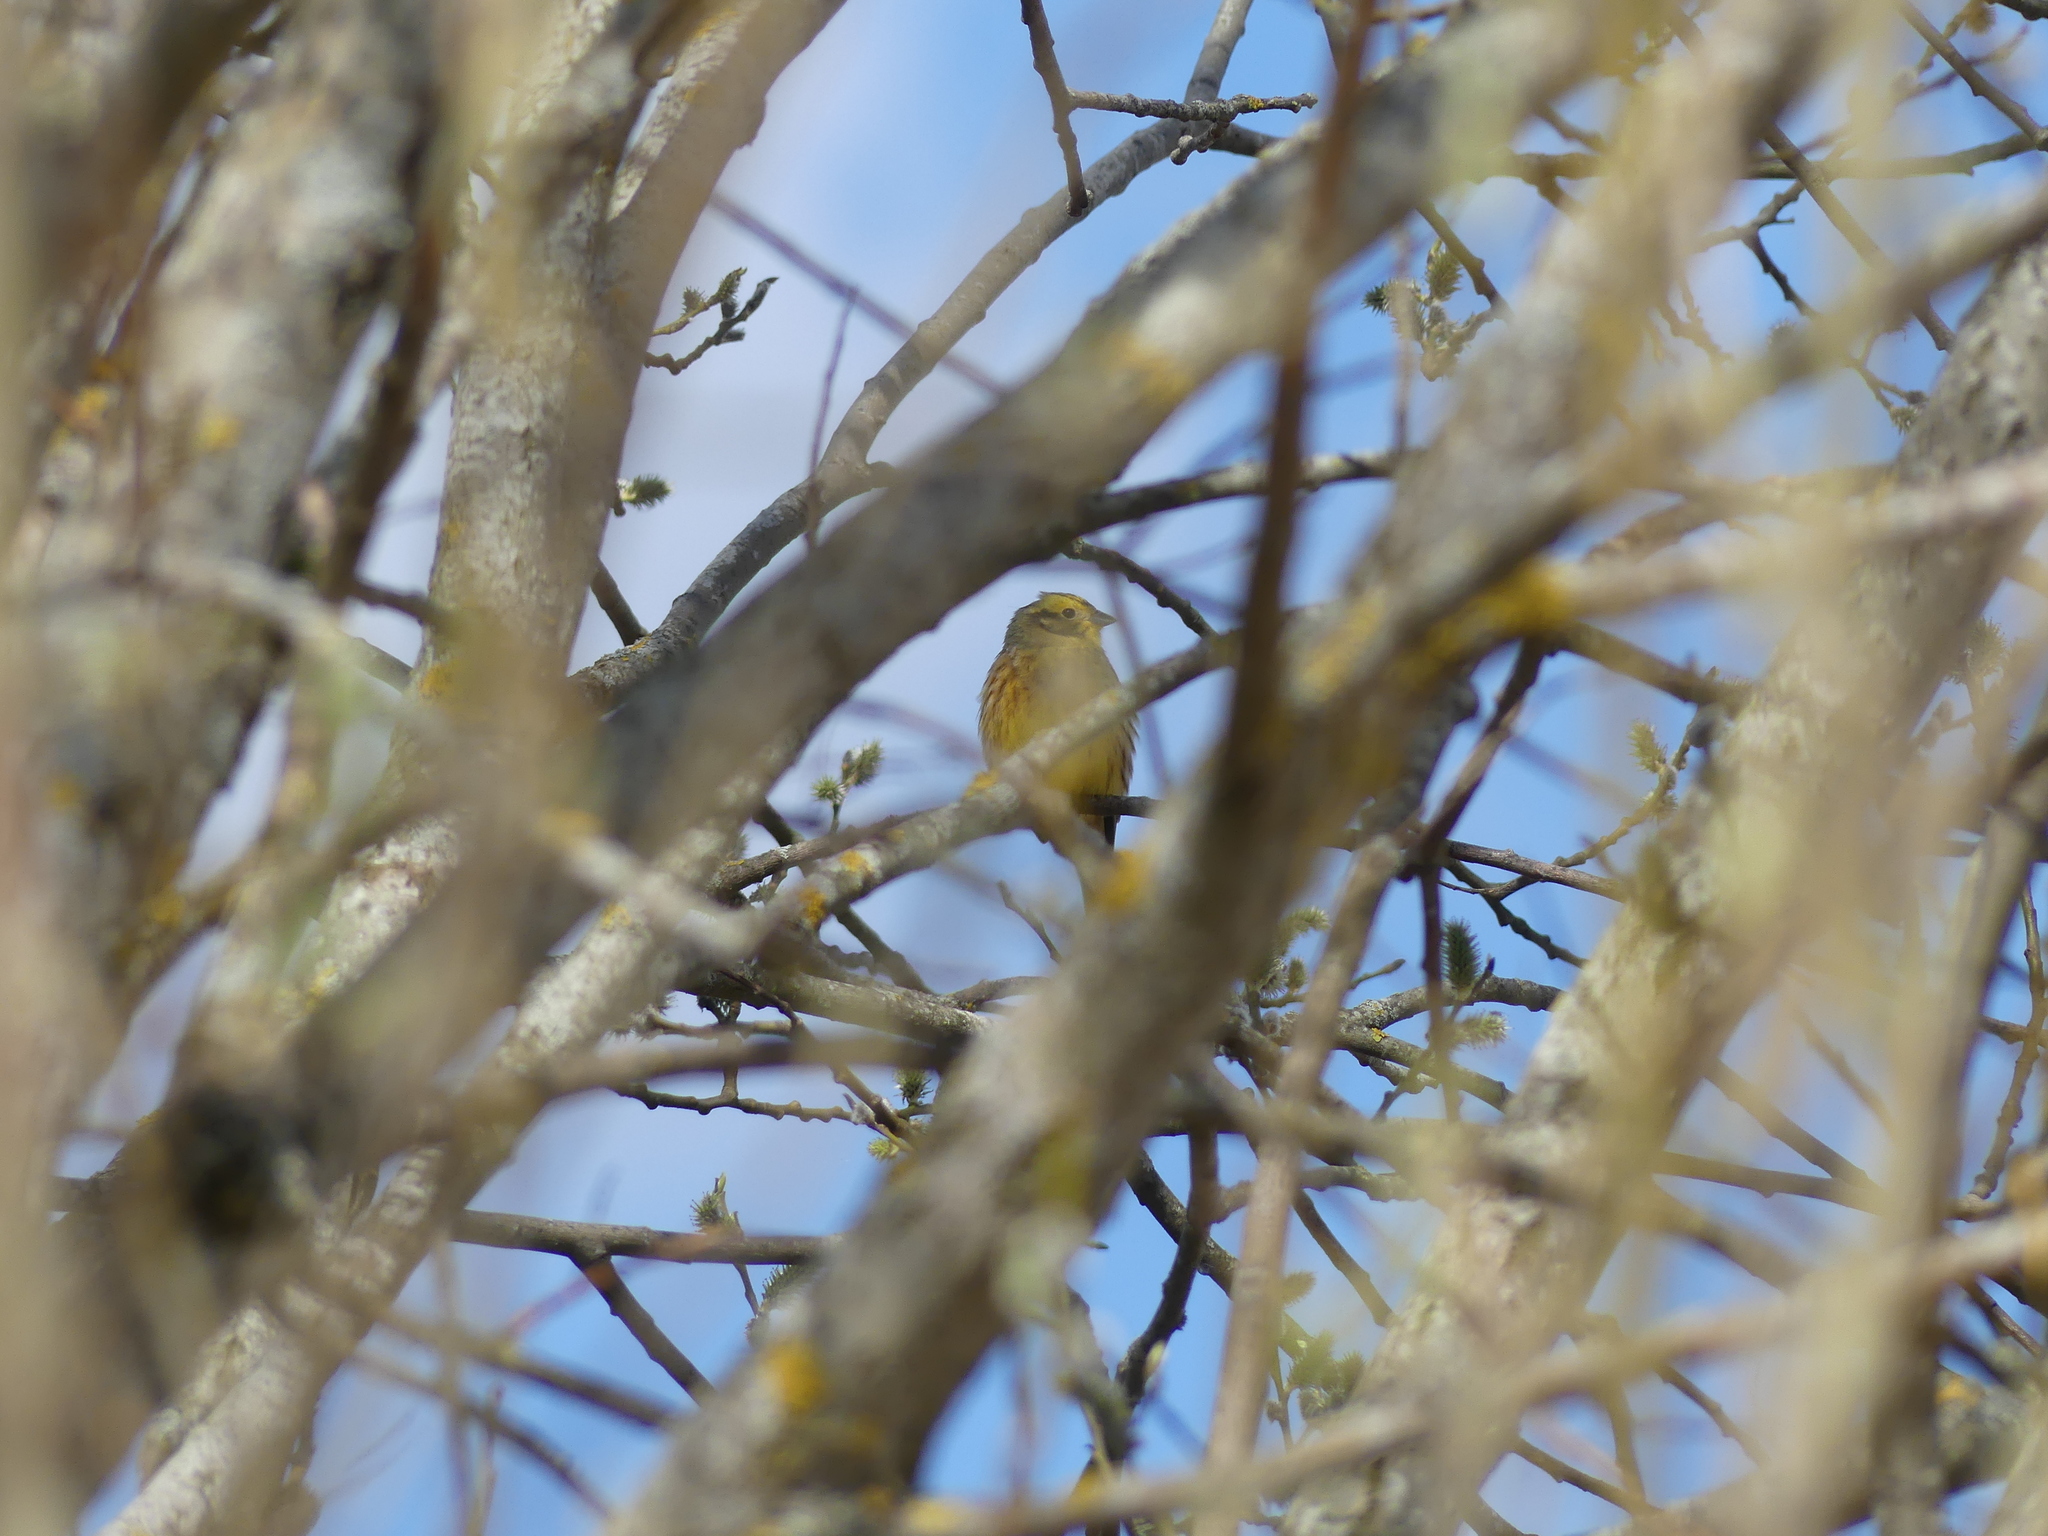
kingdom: Animalia
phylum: Chordata
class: Aves
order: Passeriformes
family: Emberizidae
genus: Emberiza
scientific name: Emberiza citrinella
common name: Yellowhammer
